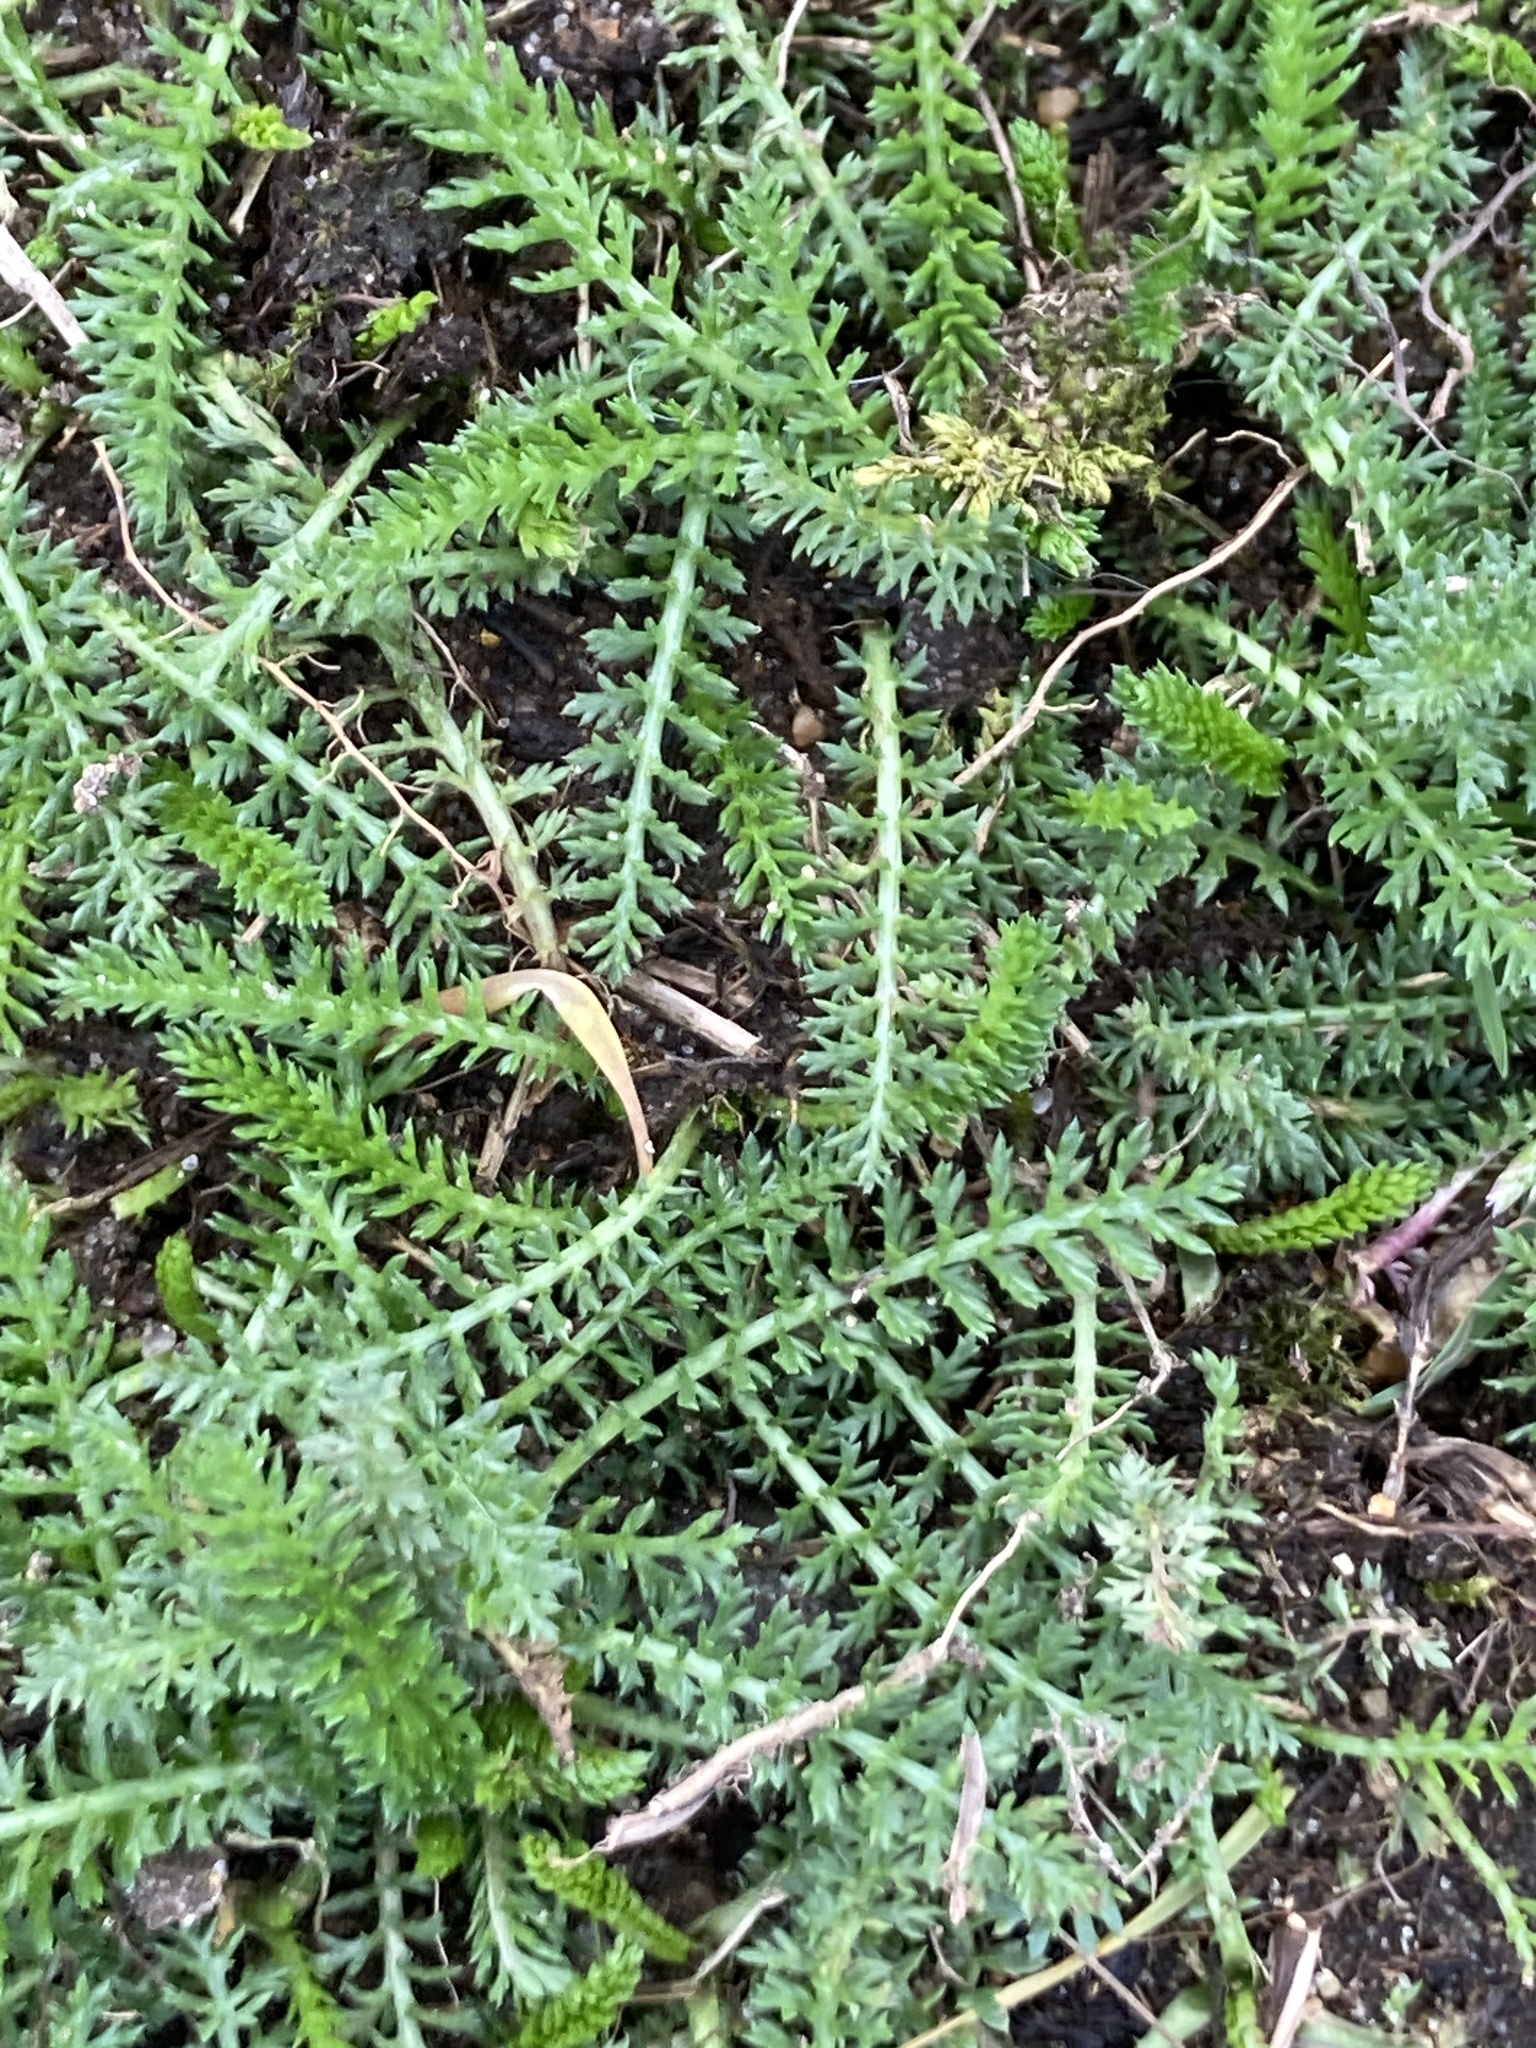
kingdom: Plantae
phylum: Tracheophyta
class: Magnoliopsida
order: Asterales
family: Asteraceae
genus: Achillea
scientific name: Achillea millefolium
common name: Yarrow
